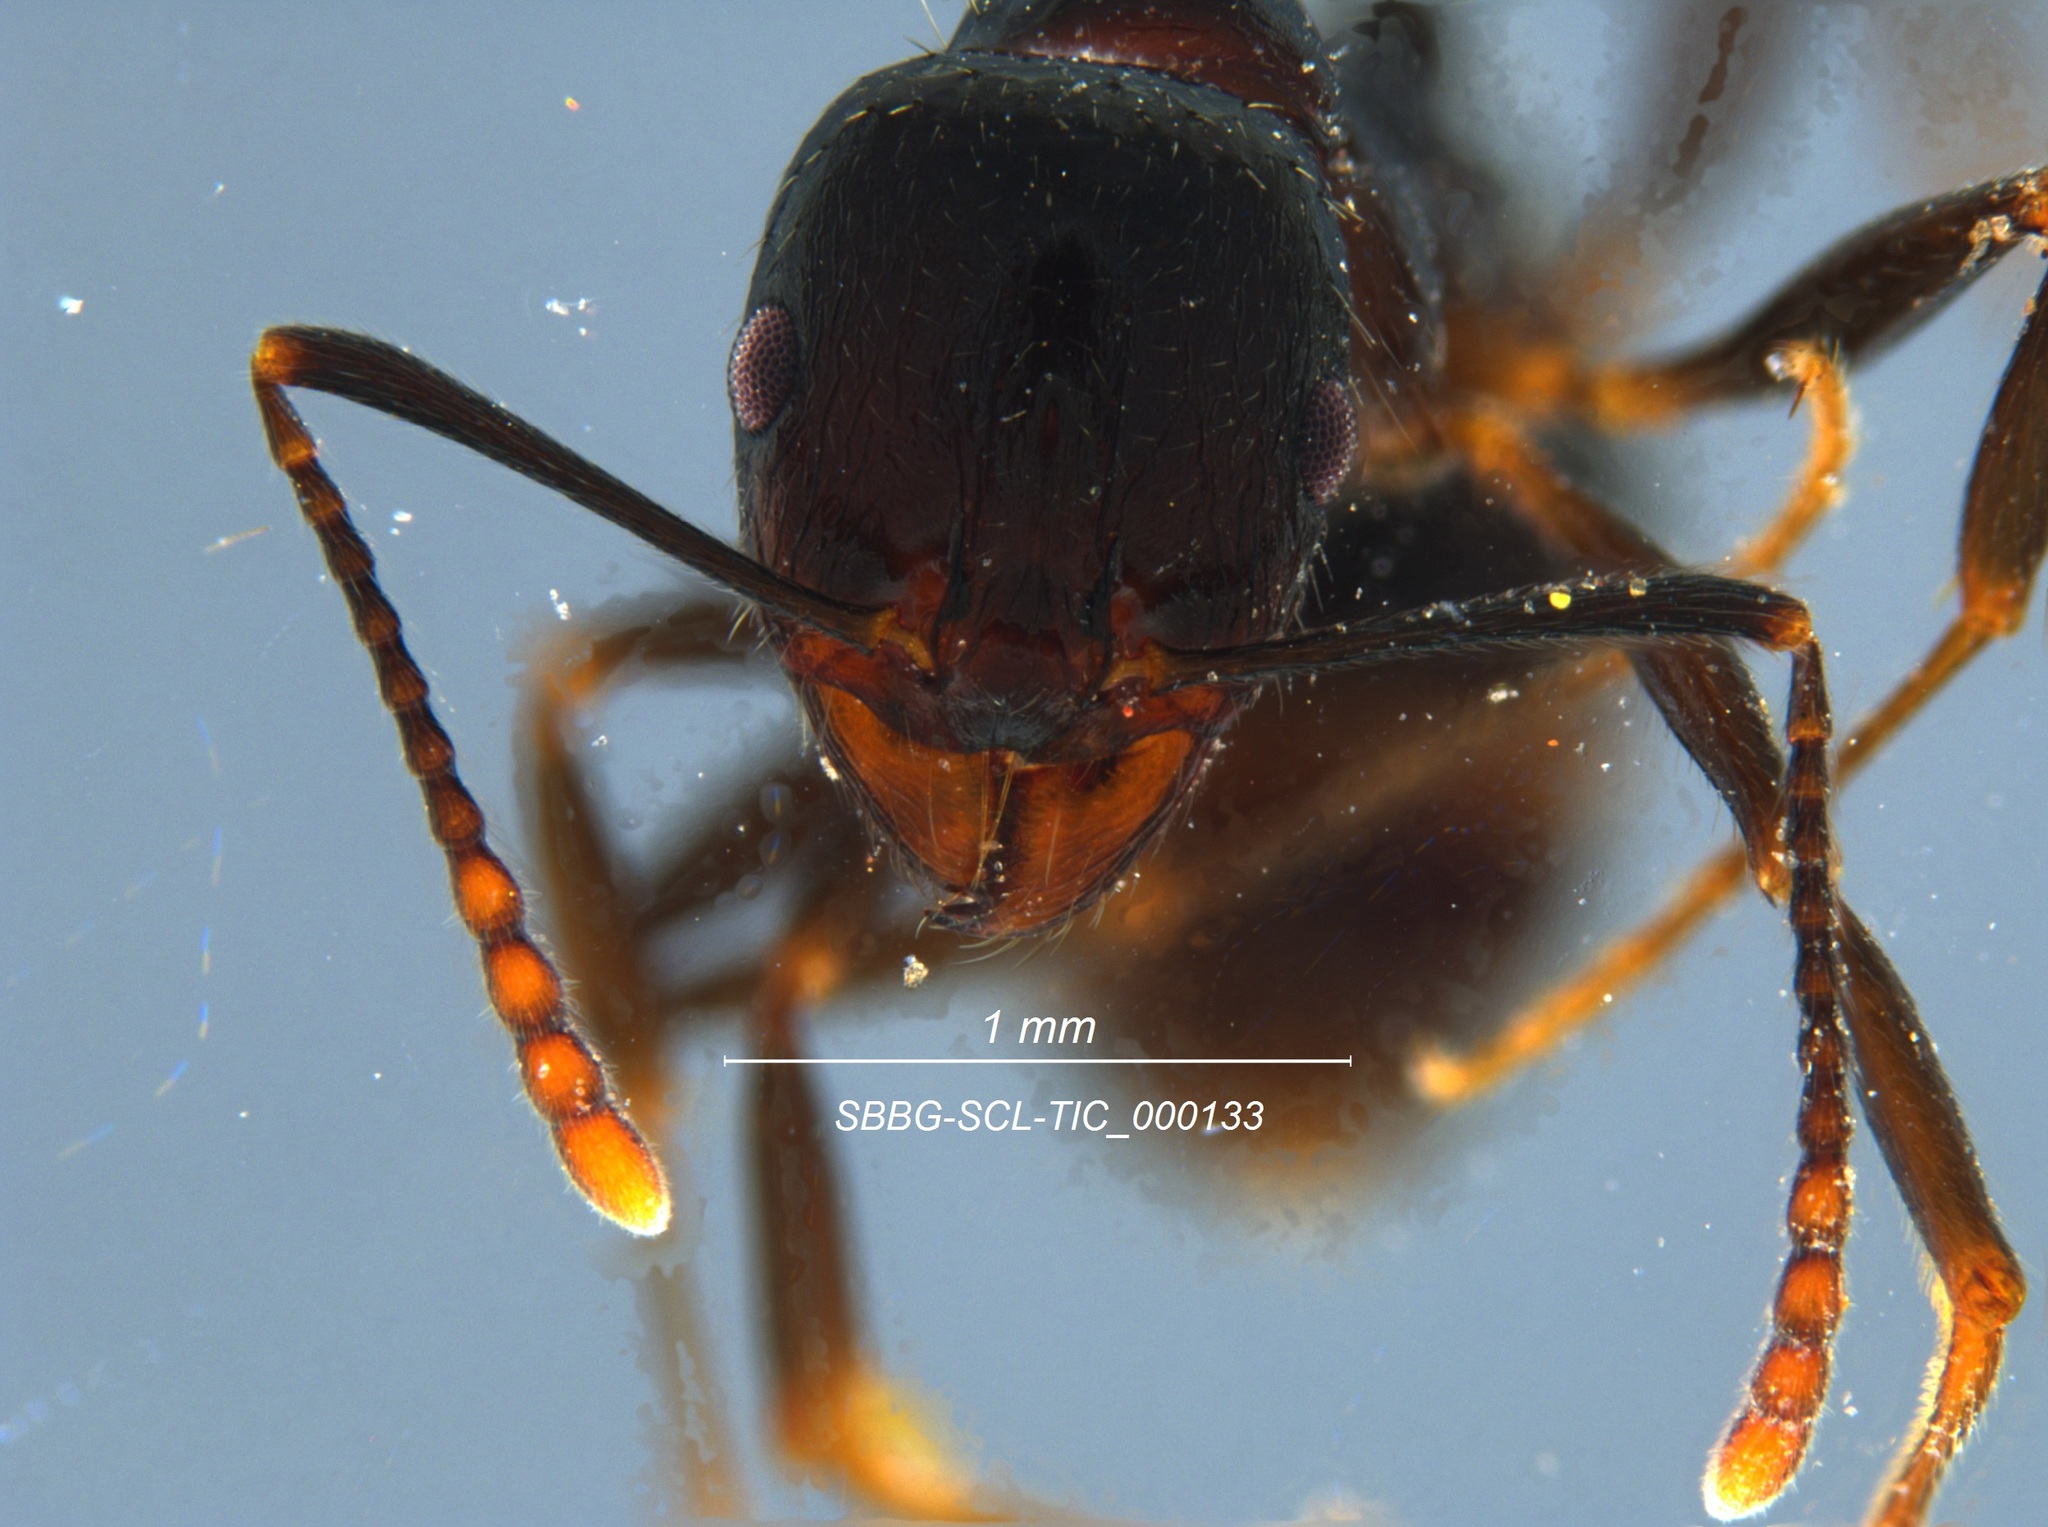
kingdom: Animalia
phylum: Arthropoda
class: Insecta
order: Hymenoptera
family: Formicidae
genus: Aphaenogaster
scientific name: Aphaenogaster patruelis
